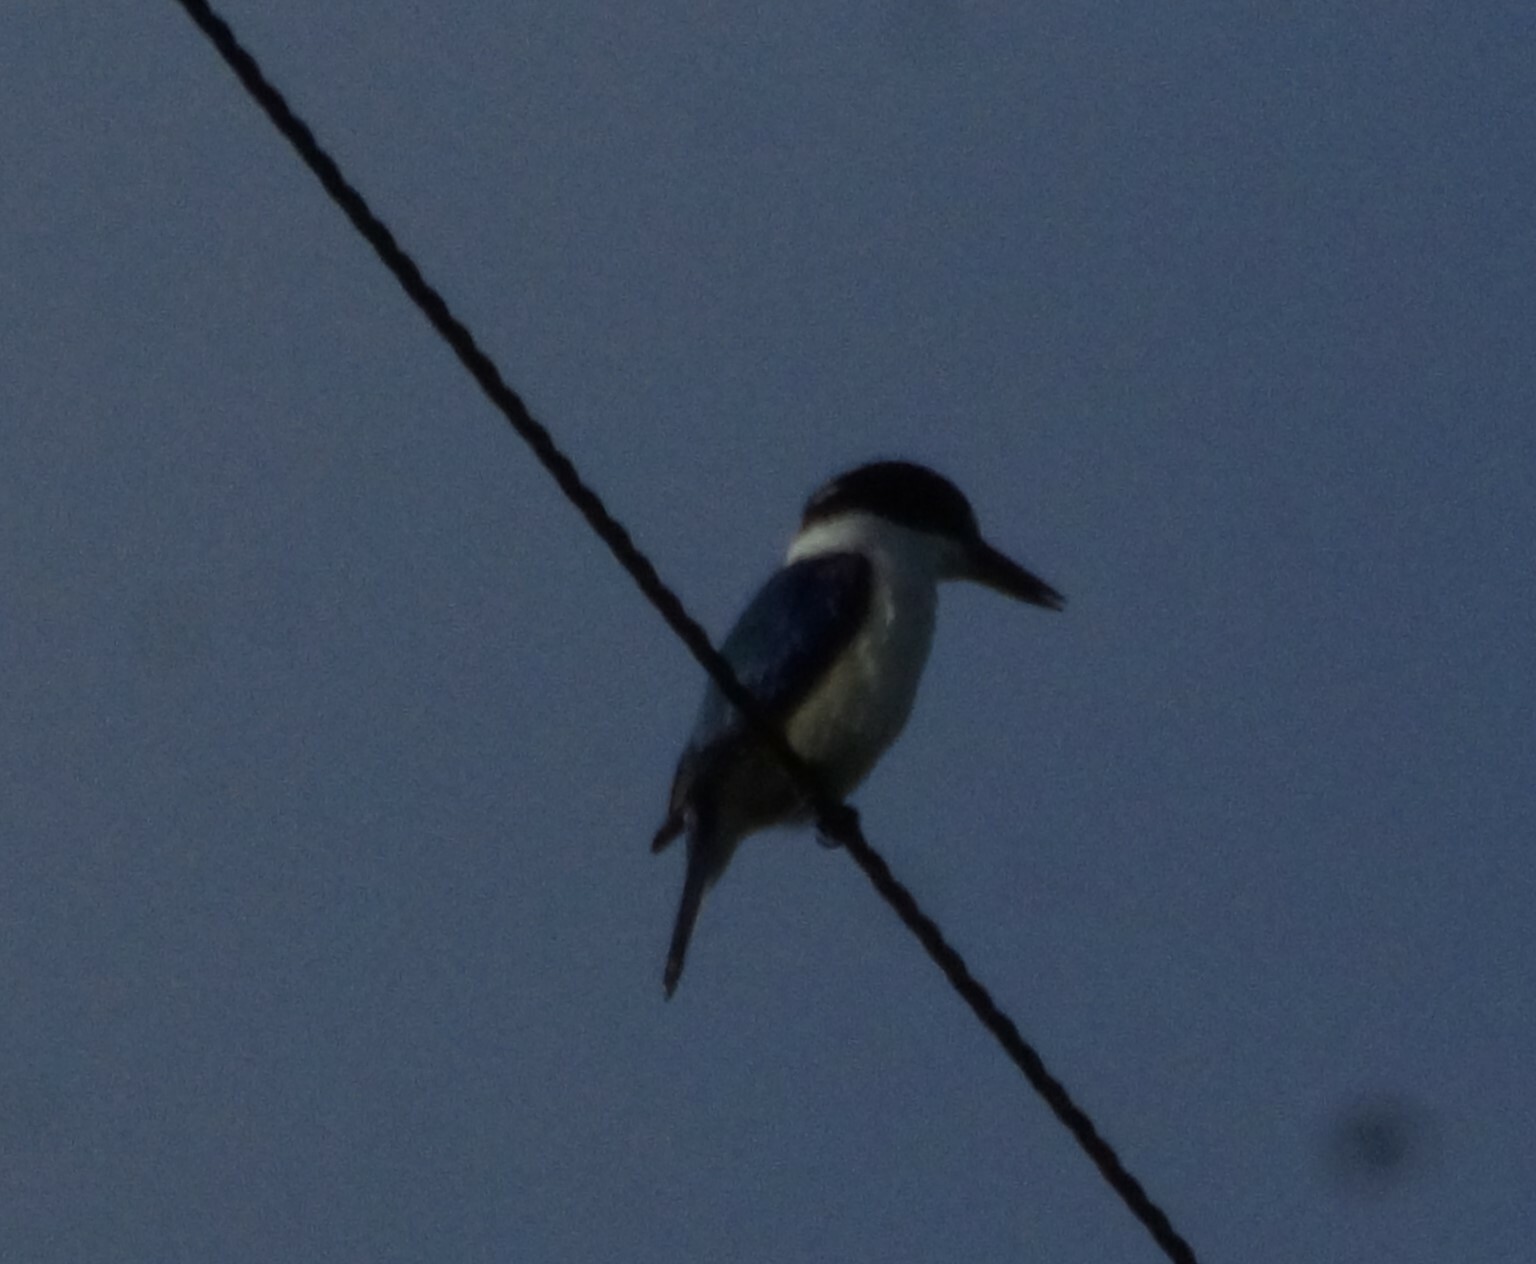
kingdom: Animalia
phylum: Chordata
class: Aves
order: Coraciiformes
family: Alcedinidae
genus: Todiramphus
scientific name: Todiramphus macleayii
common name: Forest kingfisher
